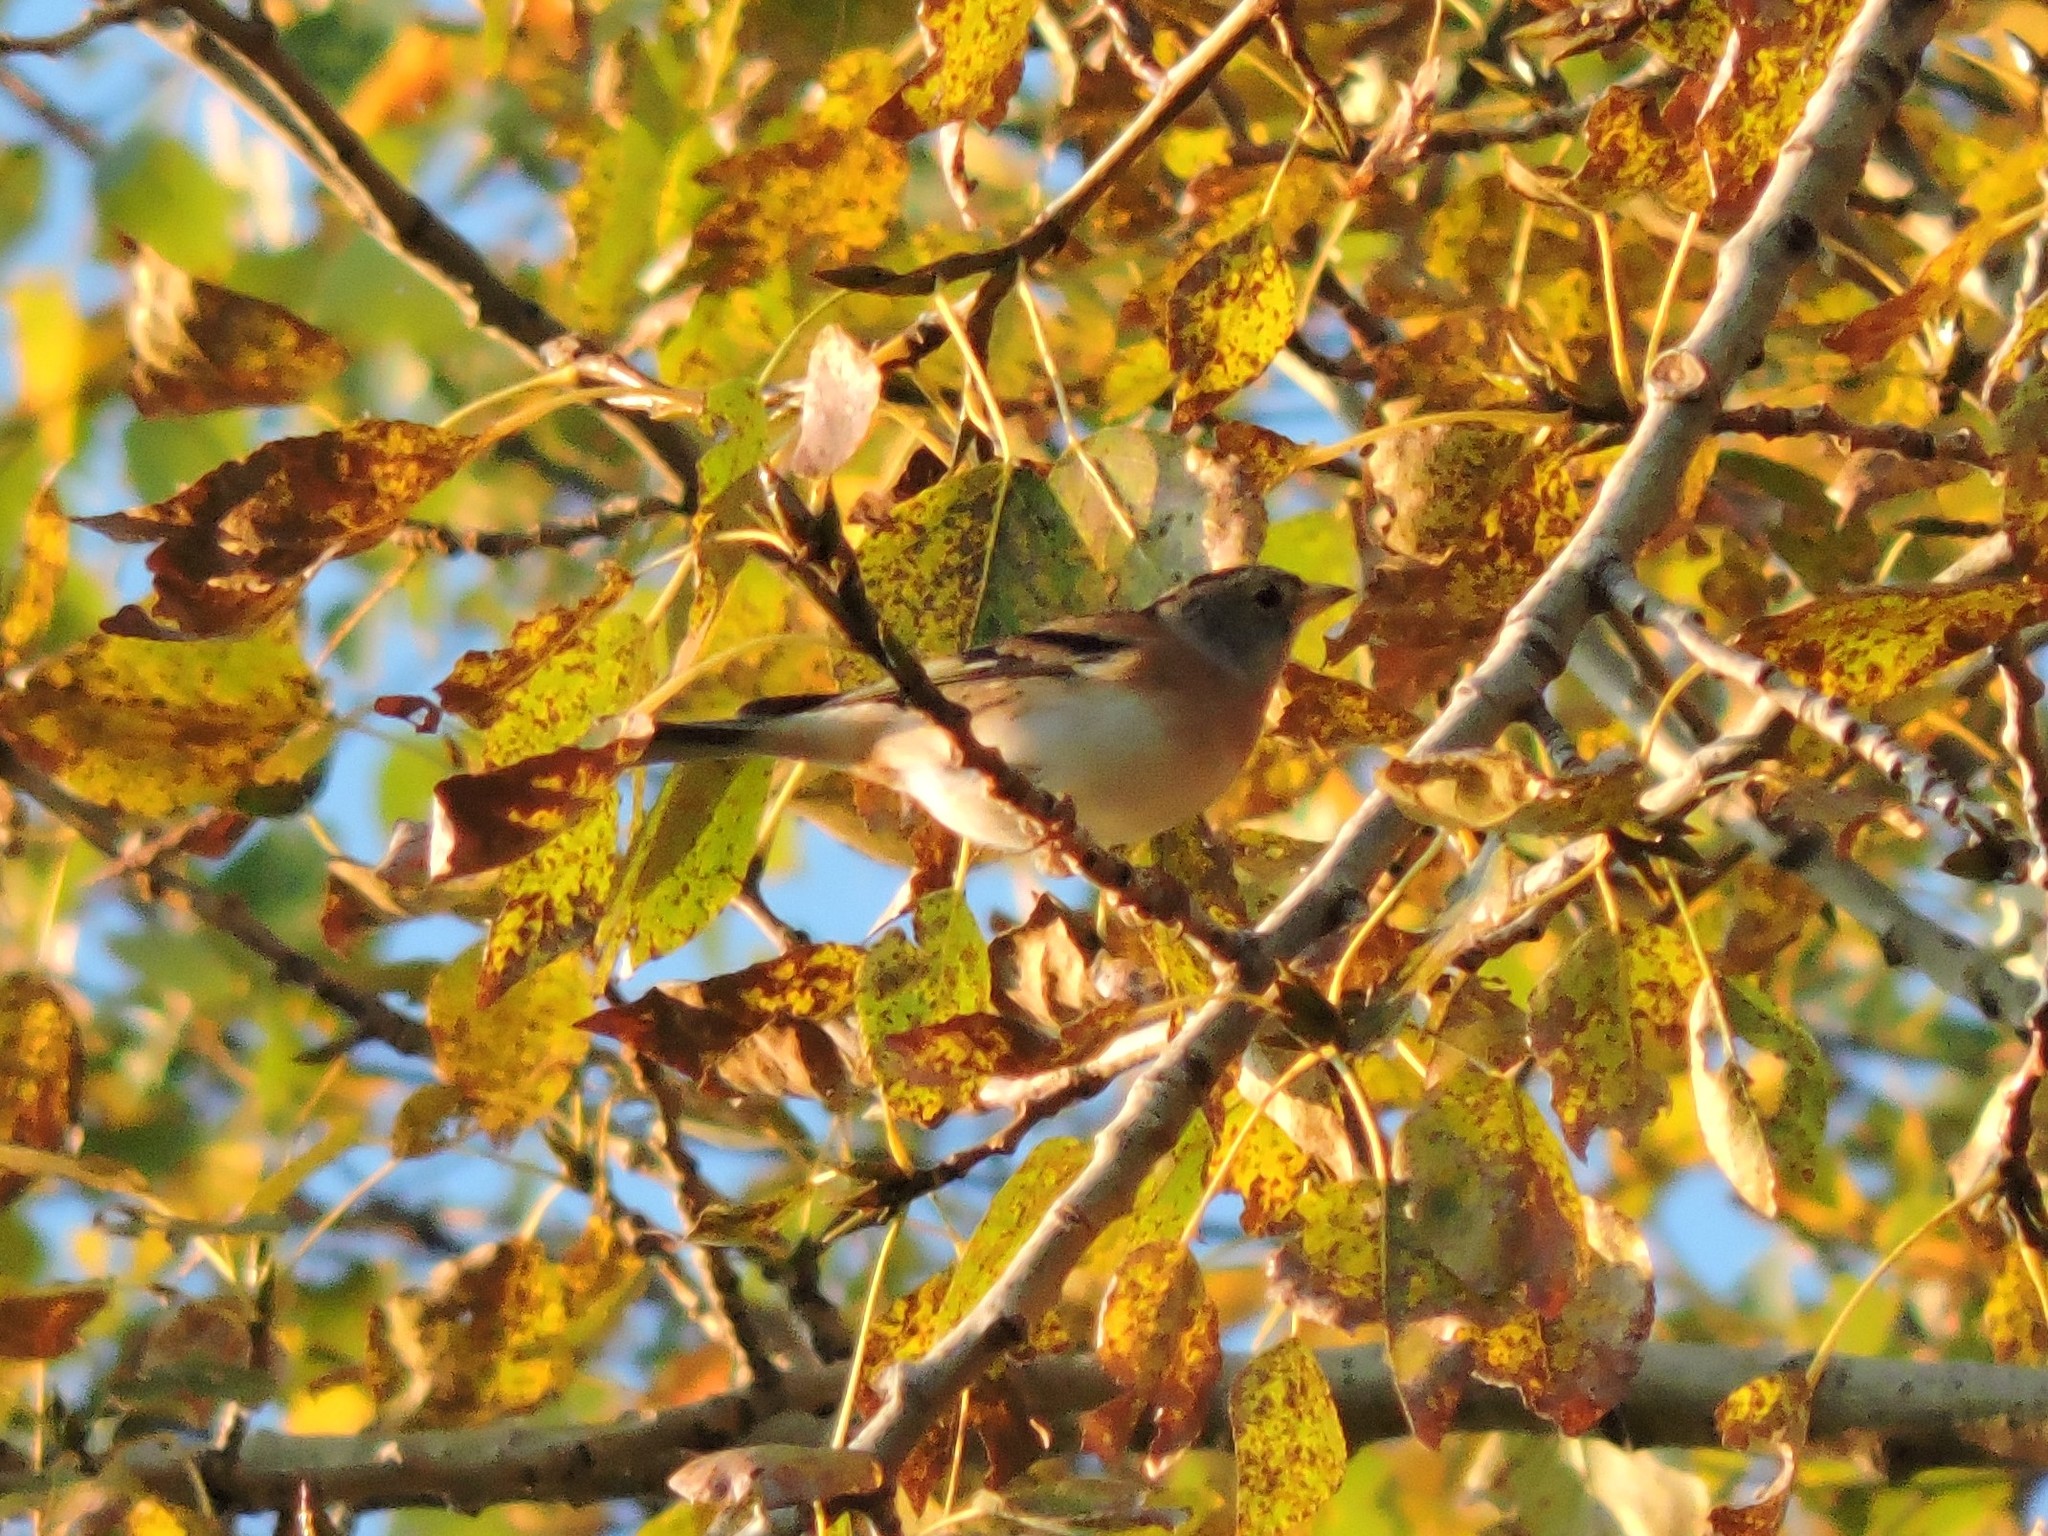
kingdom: Animalia
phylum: Chordata
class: Aves
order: Passeriformes
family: Fringillidae
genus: Fringilla
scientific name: Fringilla montifringilla
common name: Brambling
